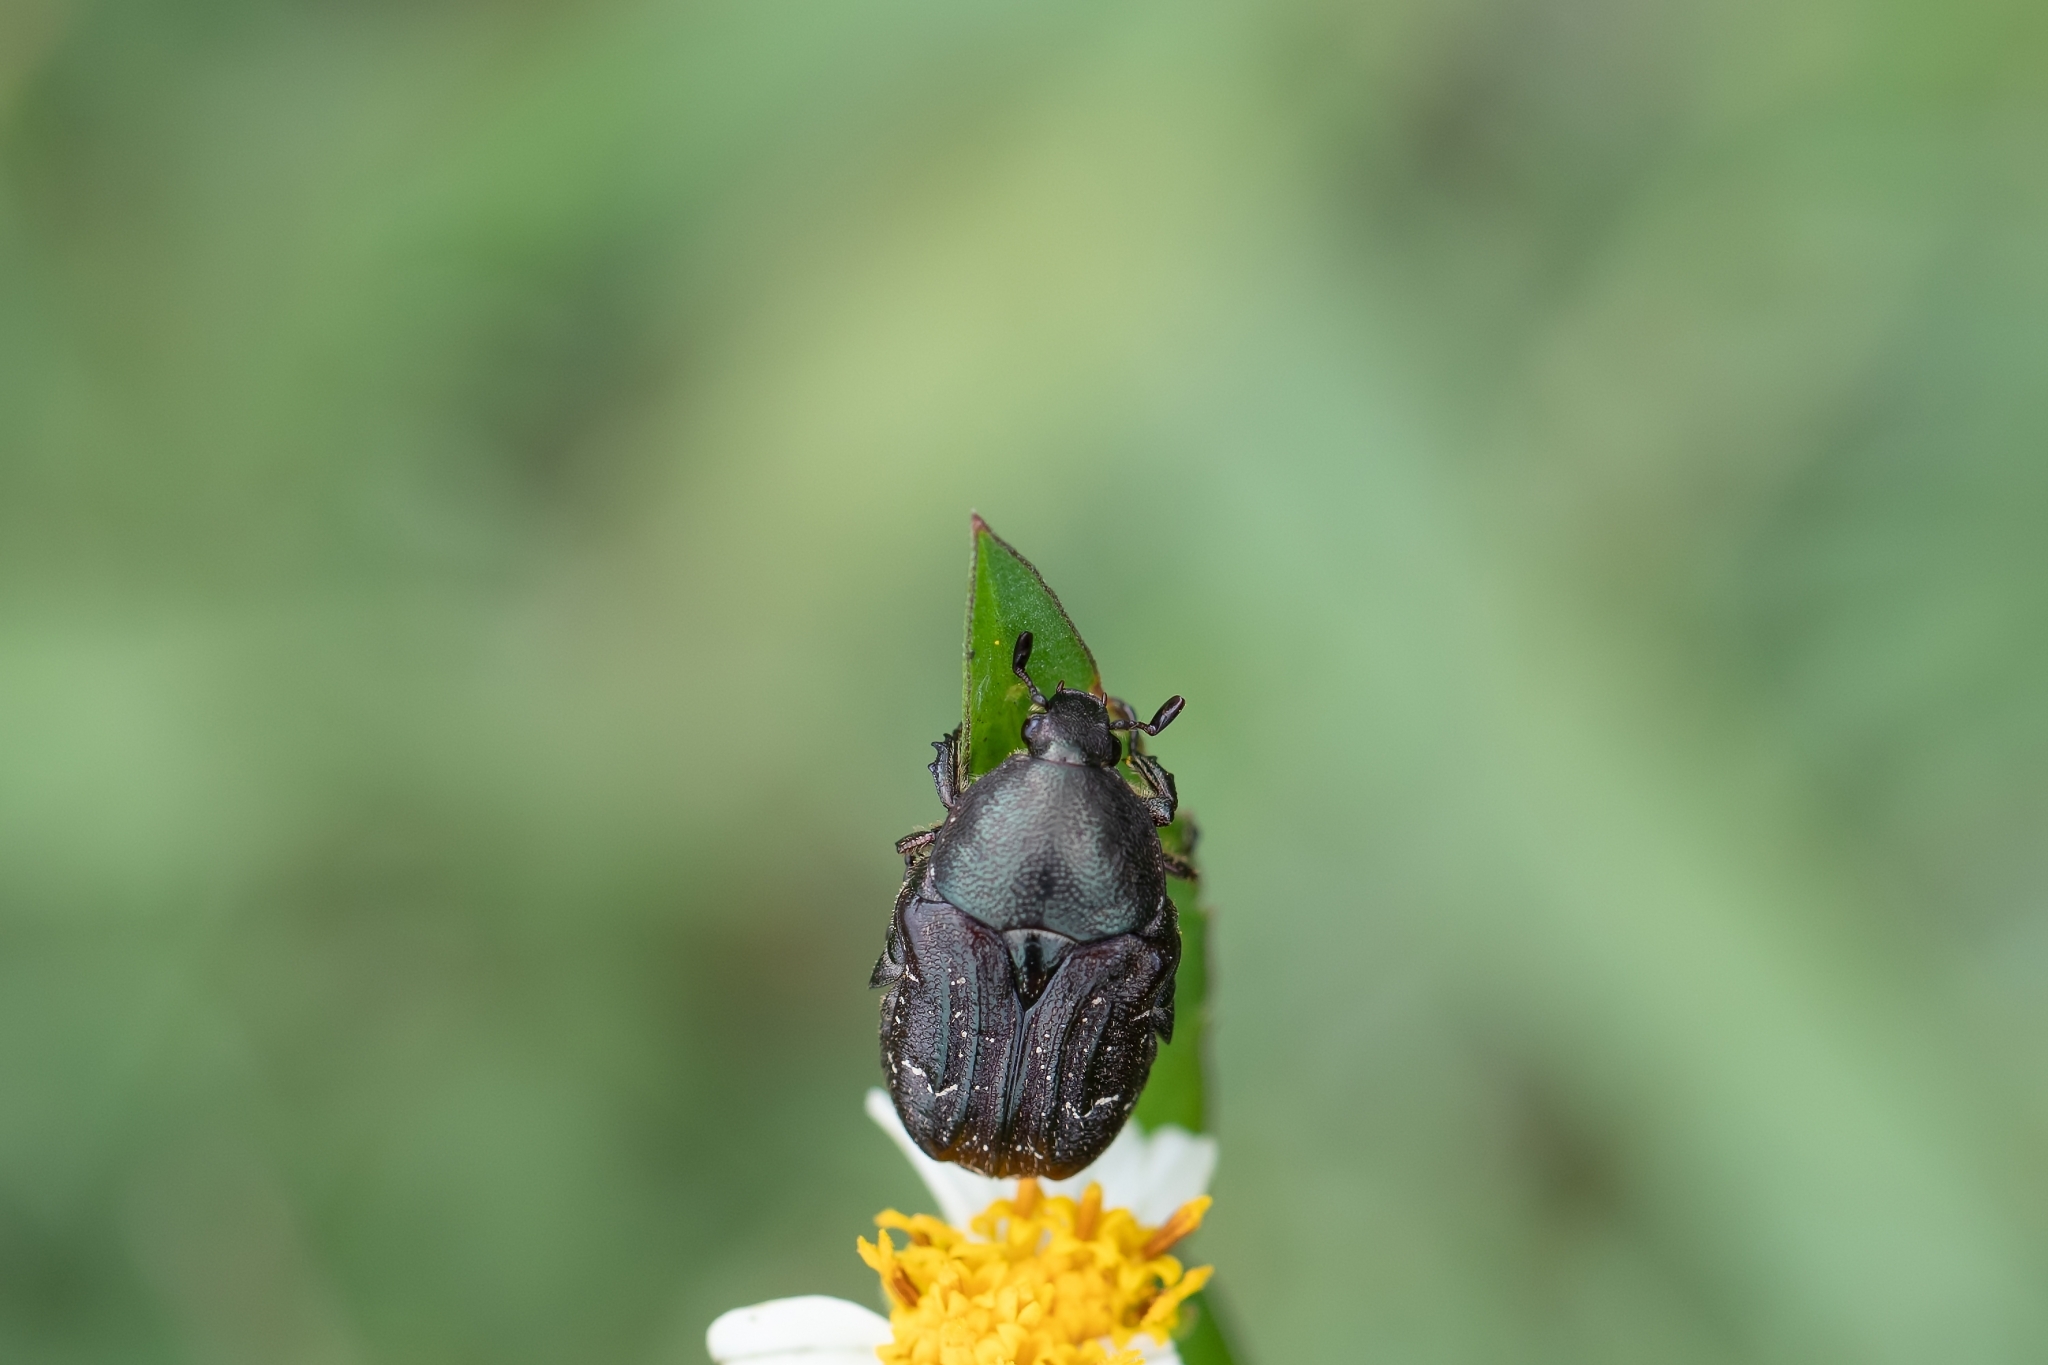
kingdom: Animalia
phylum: Arthropoda
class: Insecta
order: Coleoptera
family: Scarabaeidae
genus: Euphoria
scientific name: Euphoria sepulcralis
